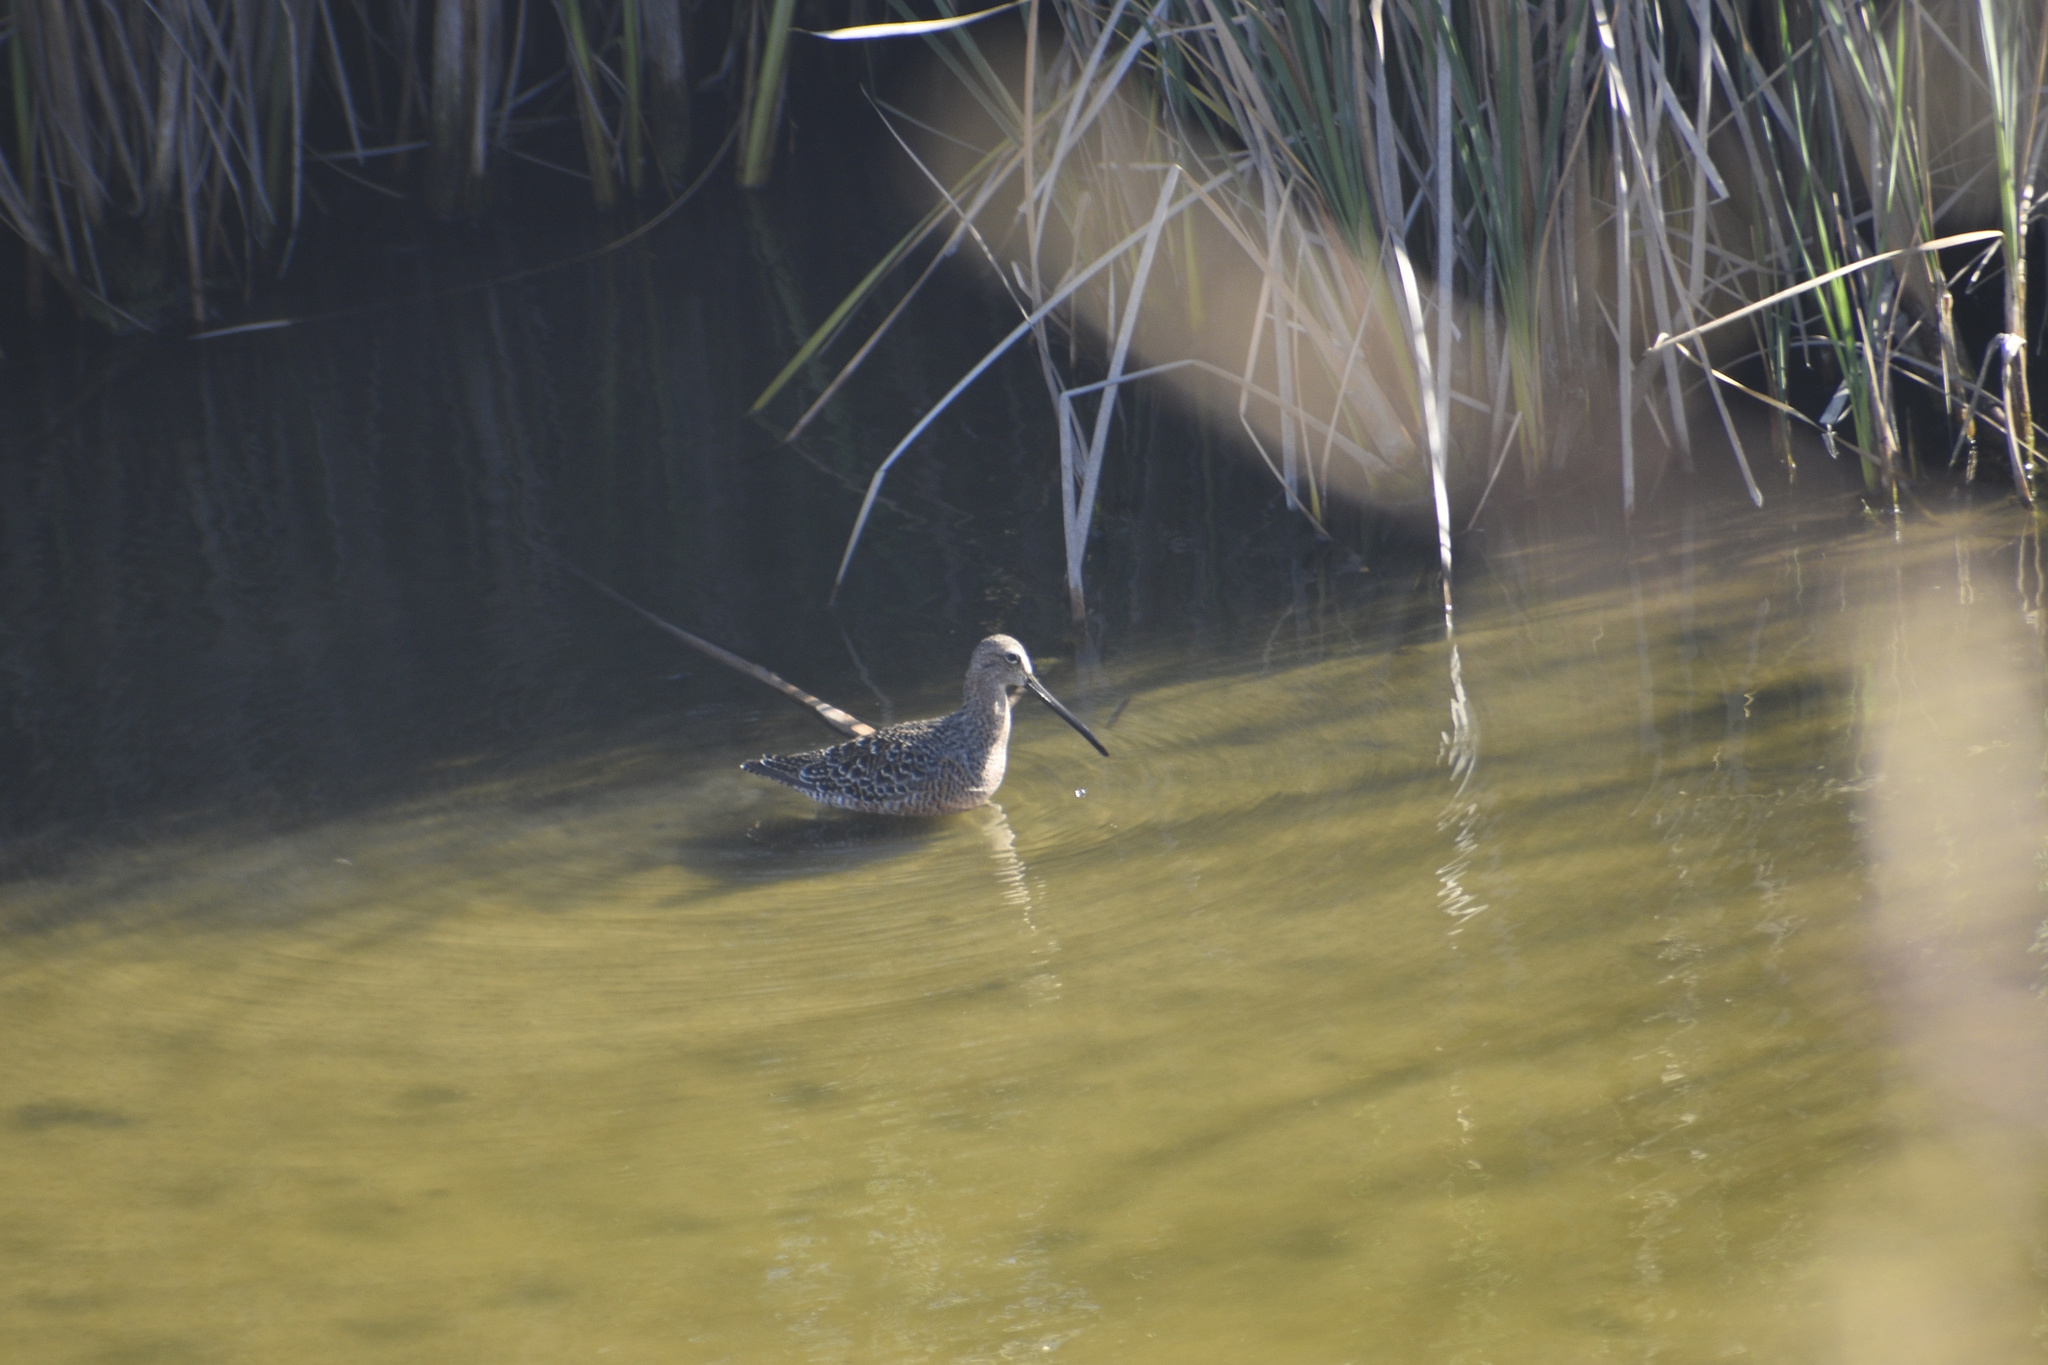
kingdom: Animalia
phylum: Chordata
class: Aves
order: Charadriiformes
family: Scolopacidae
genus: Limnodromus
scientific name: Limnodromus scolopaceus
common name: Long-billed dowitcher
